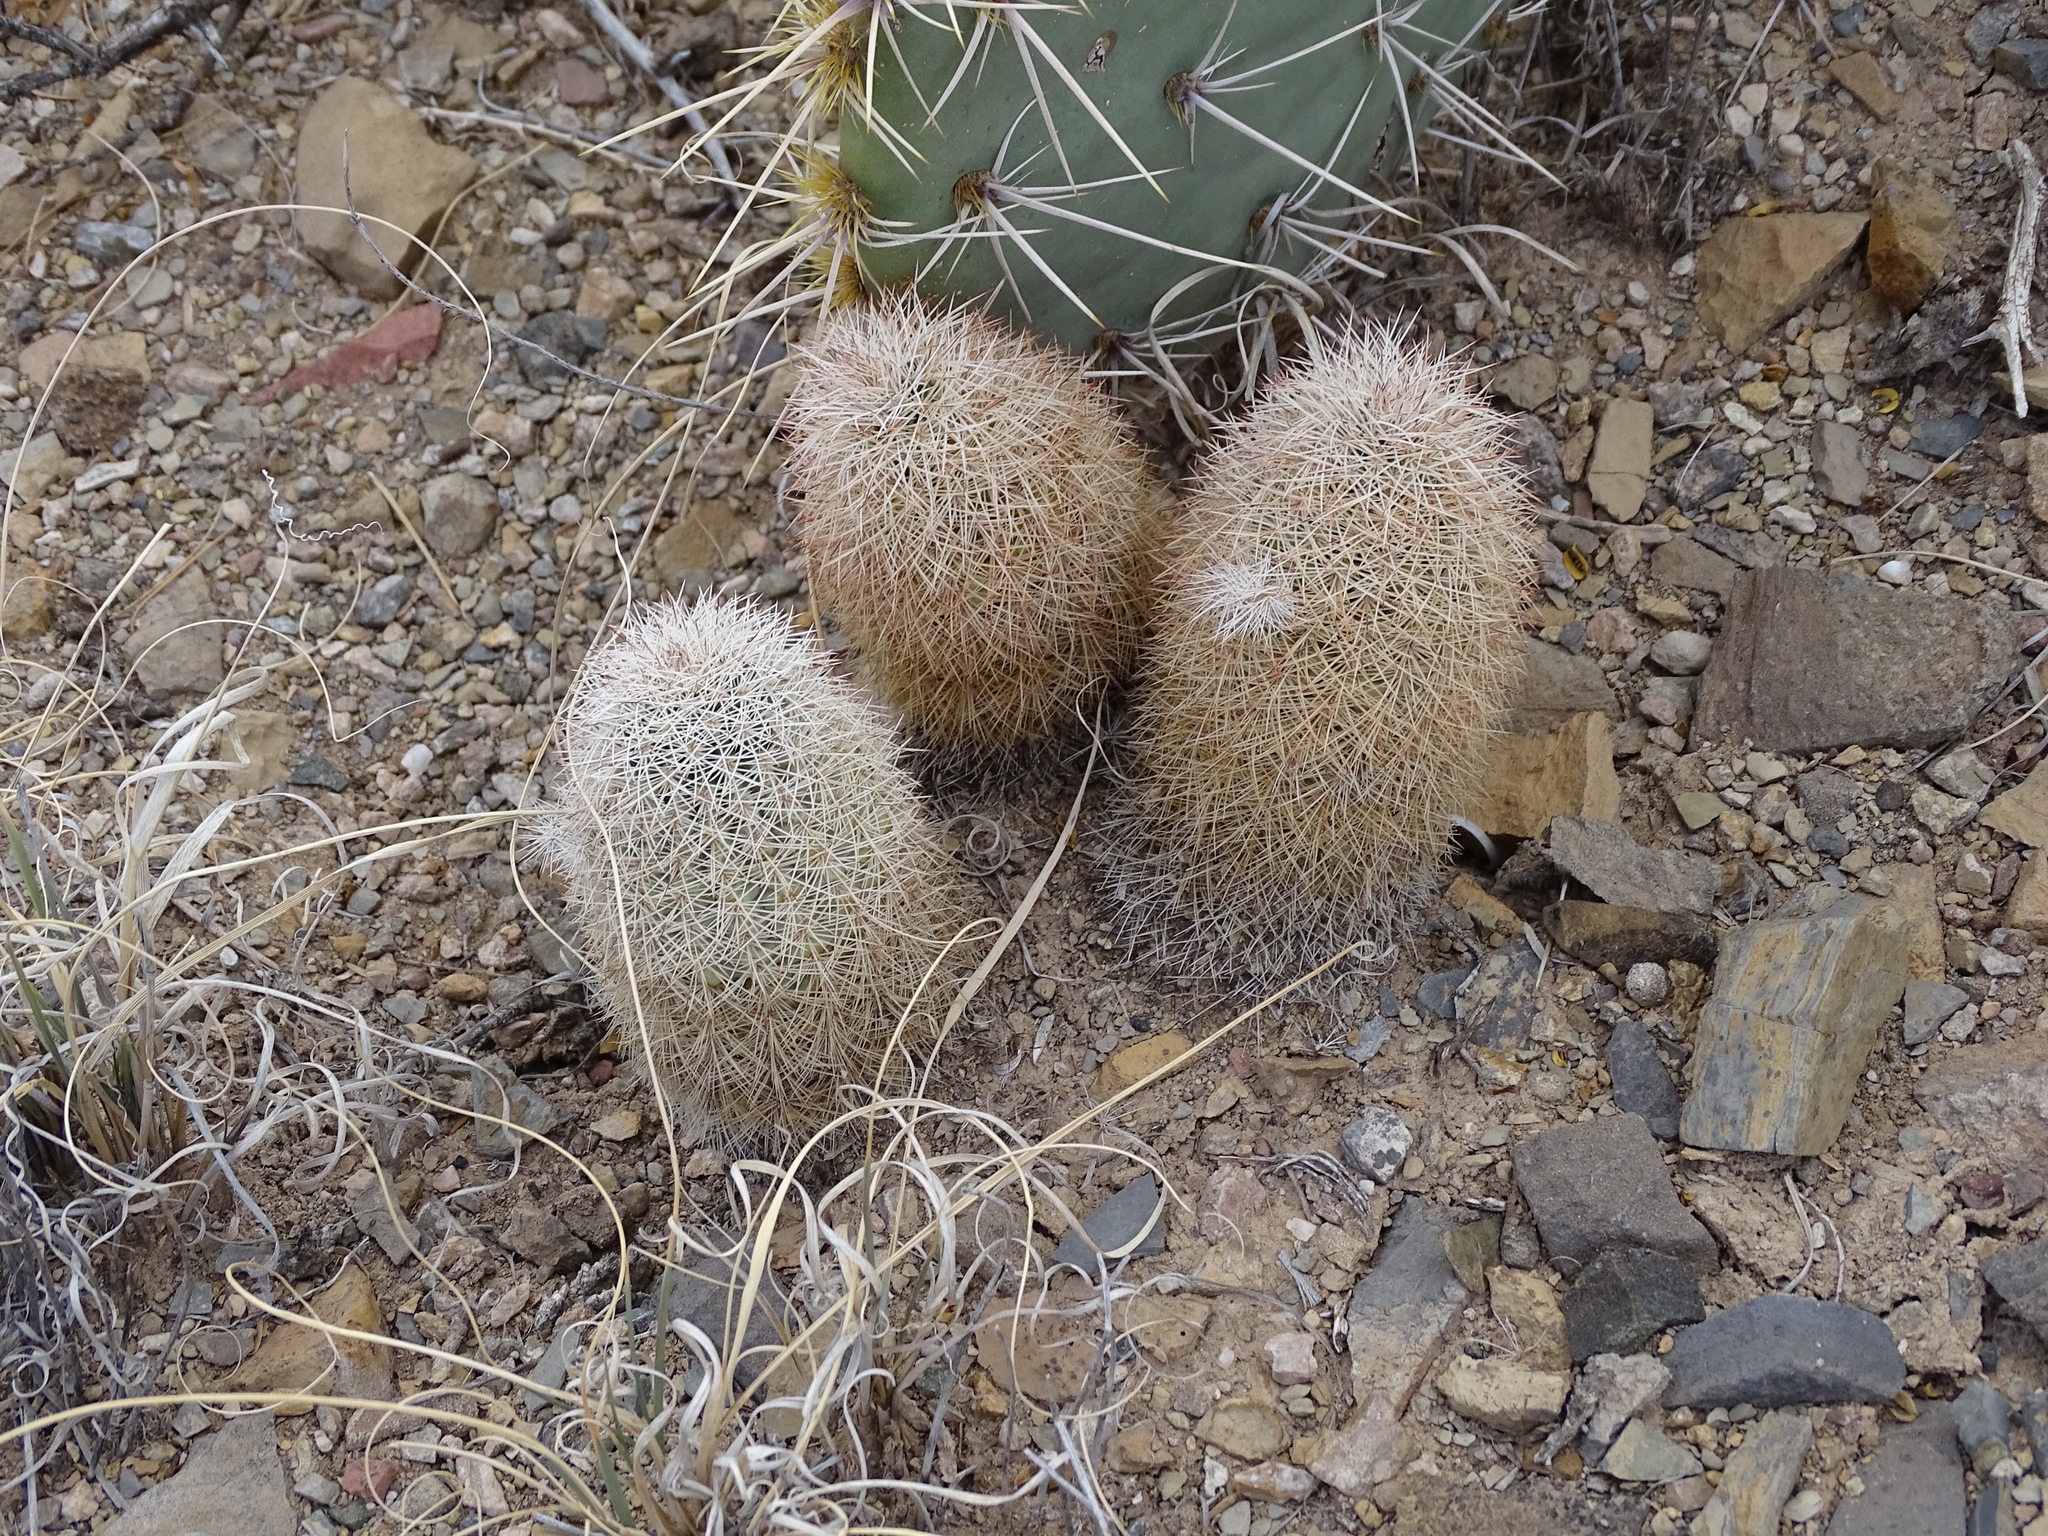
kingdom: Plantae
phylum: Tracheophyta
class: Magnoliopsida
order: Caryophyllales
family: Cactaceae
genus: Echinocereus
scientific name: Echinocereus dasyacanthus
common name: Spiny hedgehog cactus
